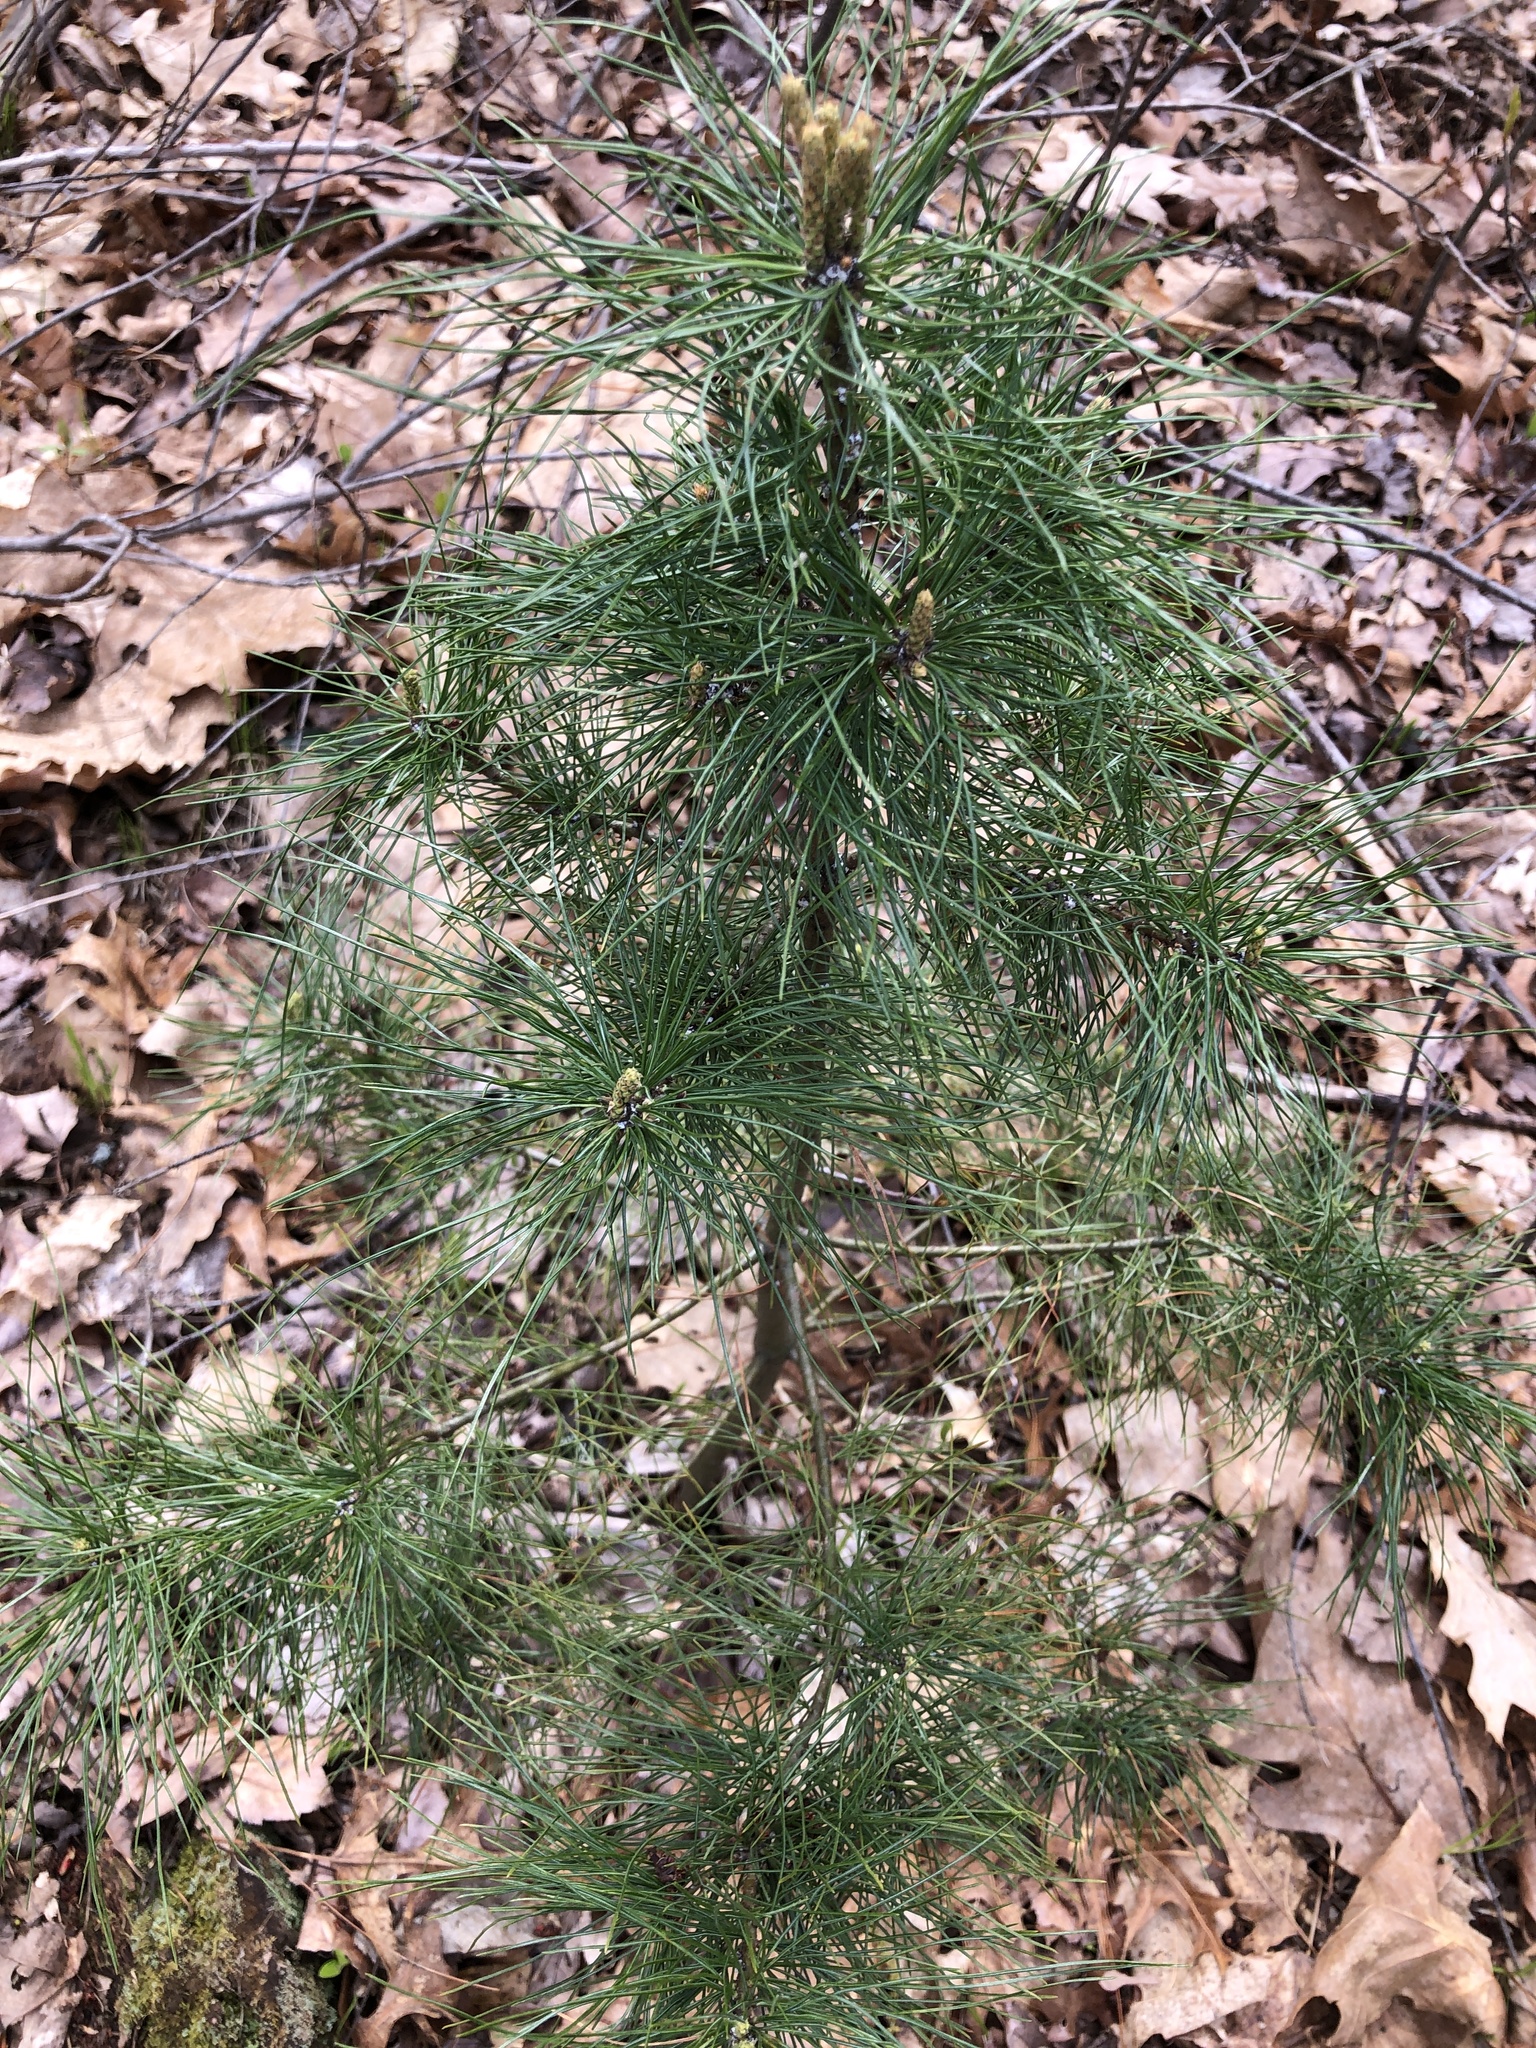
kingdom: Plantae
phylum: Tracheophyta
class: Pinopsida
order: Pinales
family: Pinaceae
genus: Pinus
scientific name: Pinus strobus
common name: Weymouth pine
